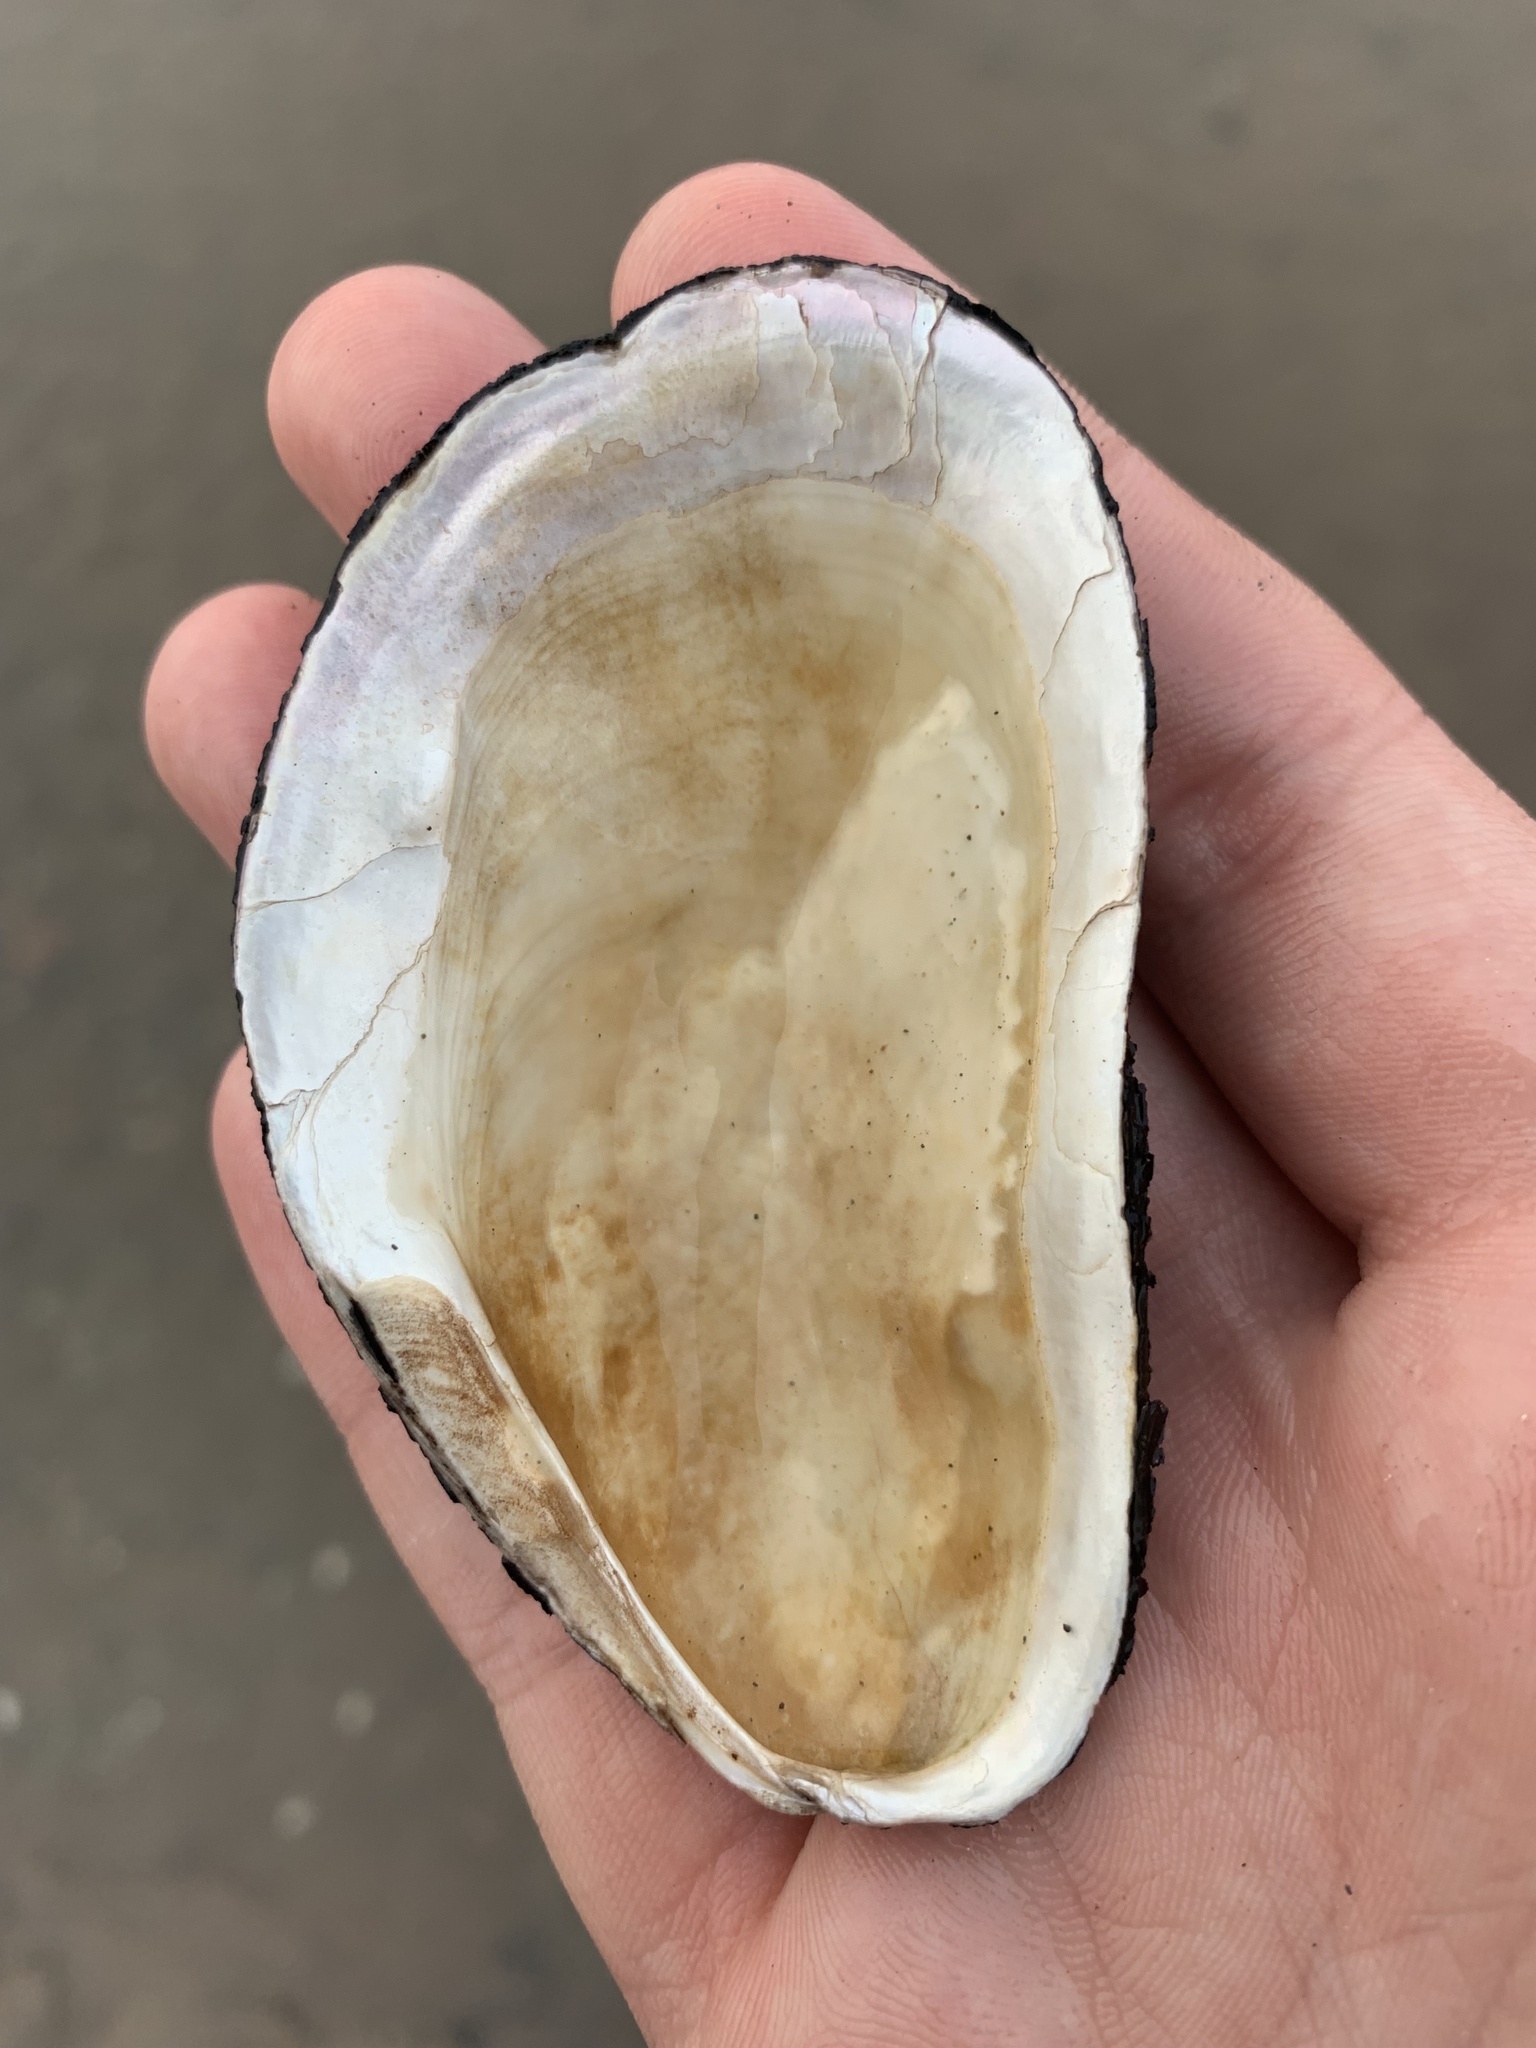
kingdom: Animalia
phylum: Mollusca
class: Bivalvia
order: Mytilida
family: Mytilidae
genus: Modiolus
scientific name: Modiolus modiolus
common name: Horse-mussel
